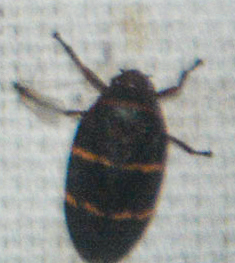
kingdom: Animalia
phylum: Arthropoda
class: Insecta
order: Hemiptera
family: Cercopidae
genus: Prosapia
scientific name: Prosapia bicincta
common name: Twolined spittlebug
